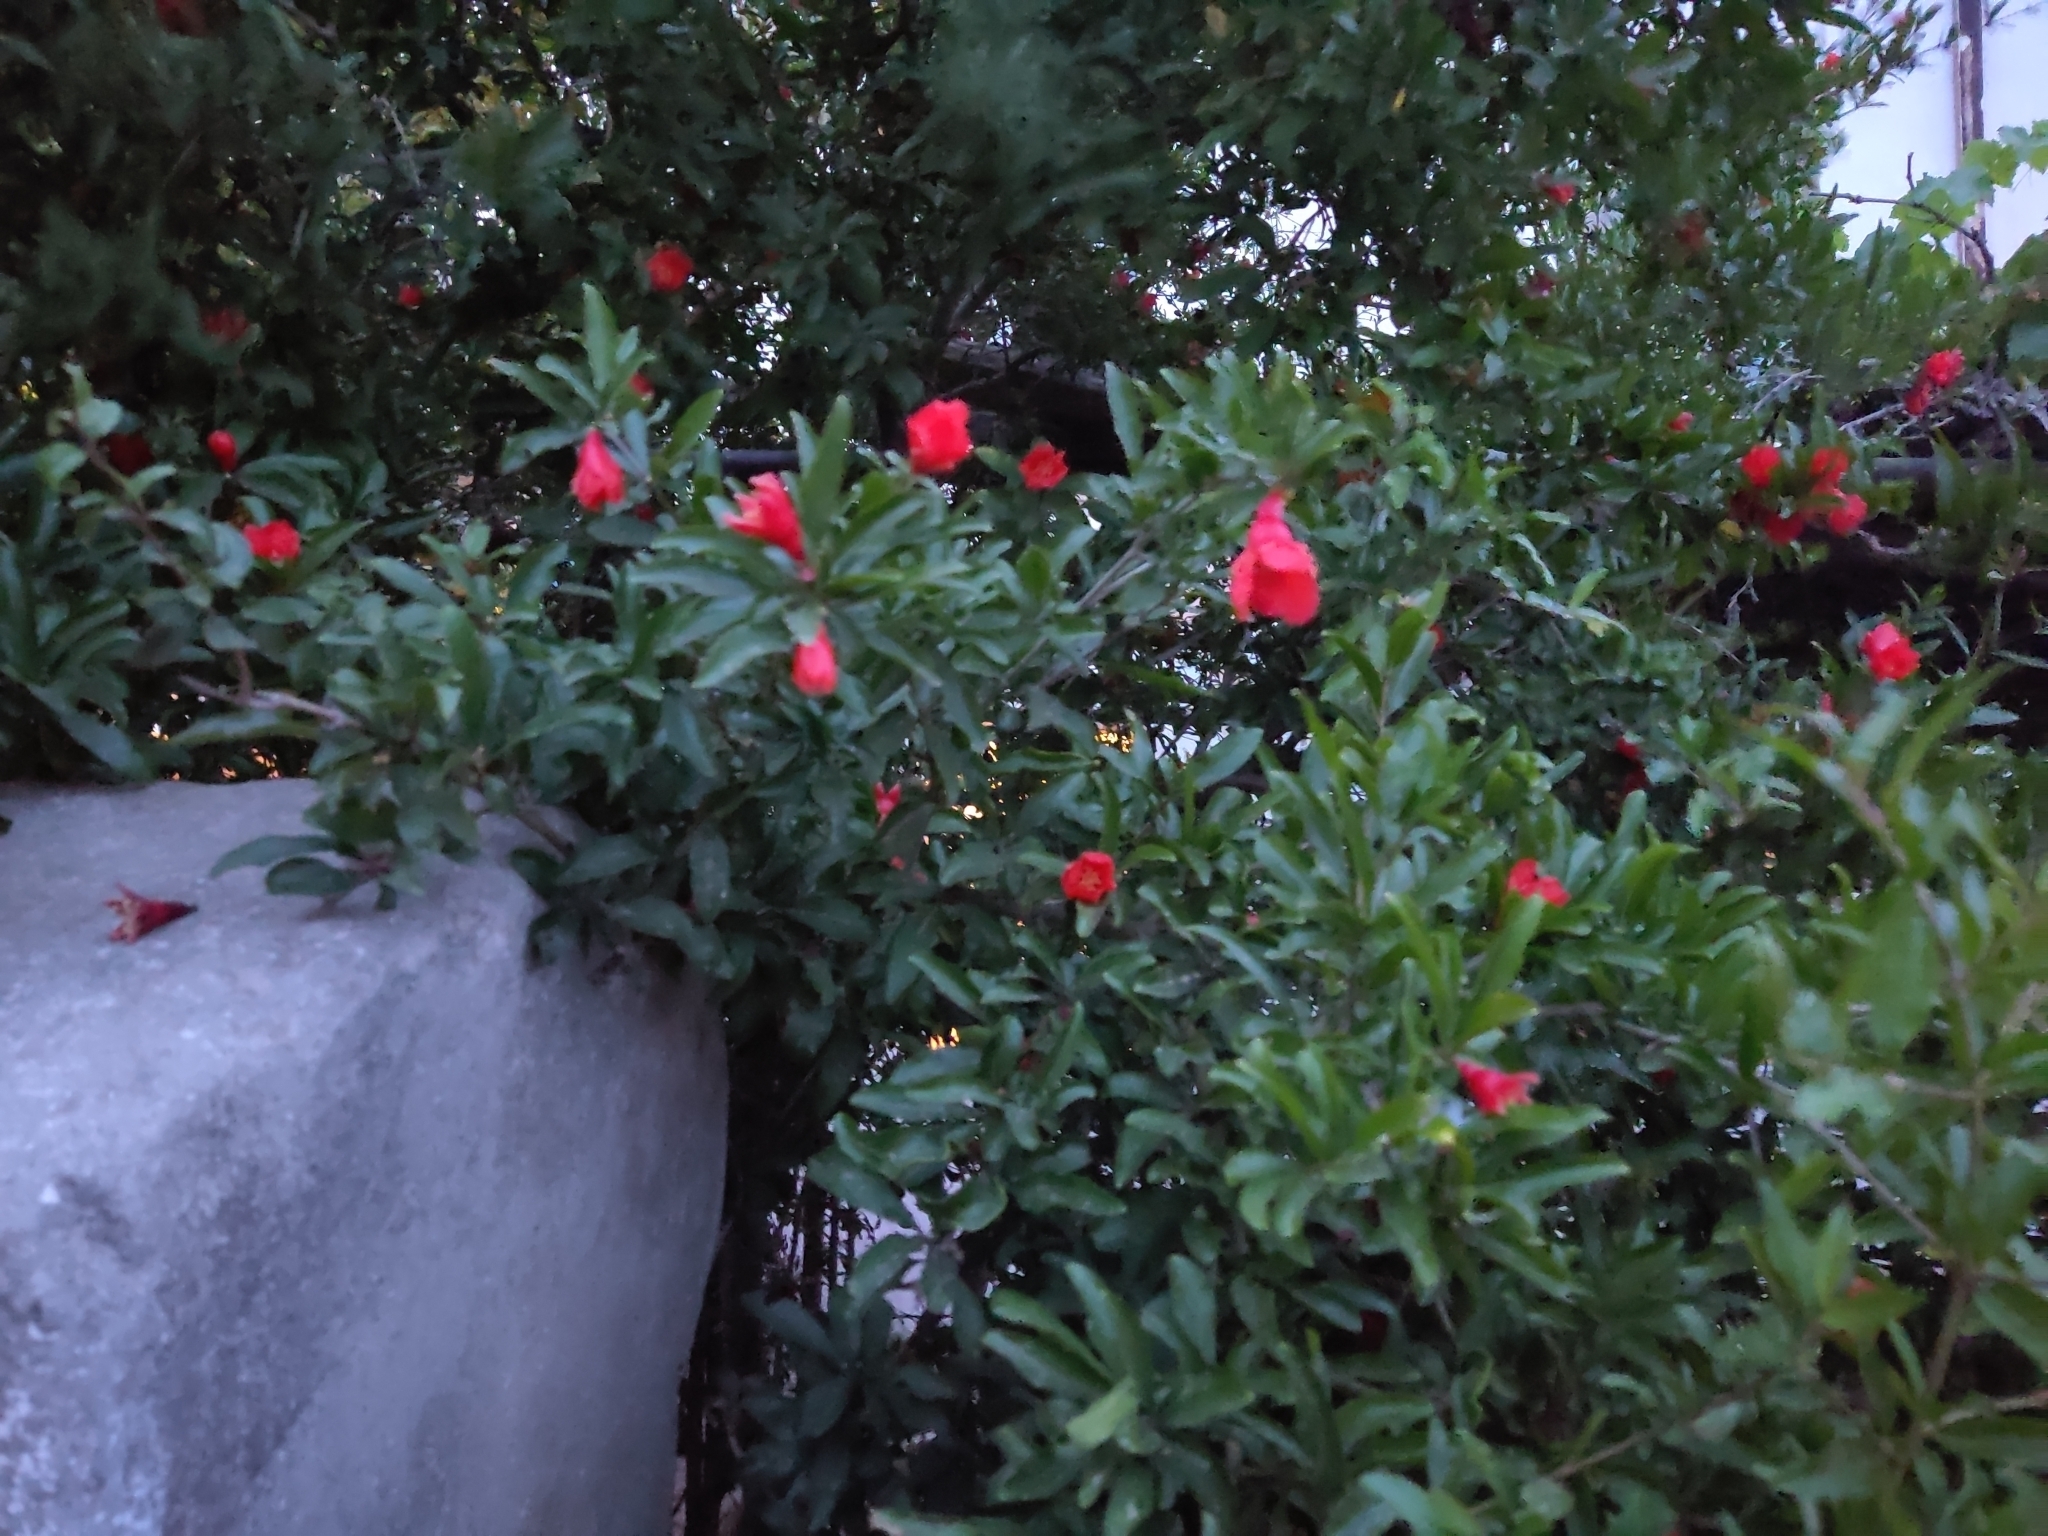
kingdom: Plantae
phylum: Tracheophyta
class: Magnoliopsida
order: Myrtales
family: Lythraceae
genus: Punica
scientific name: Punica granatum
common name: Pomegranate
